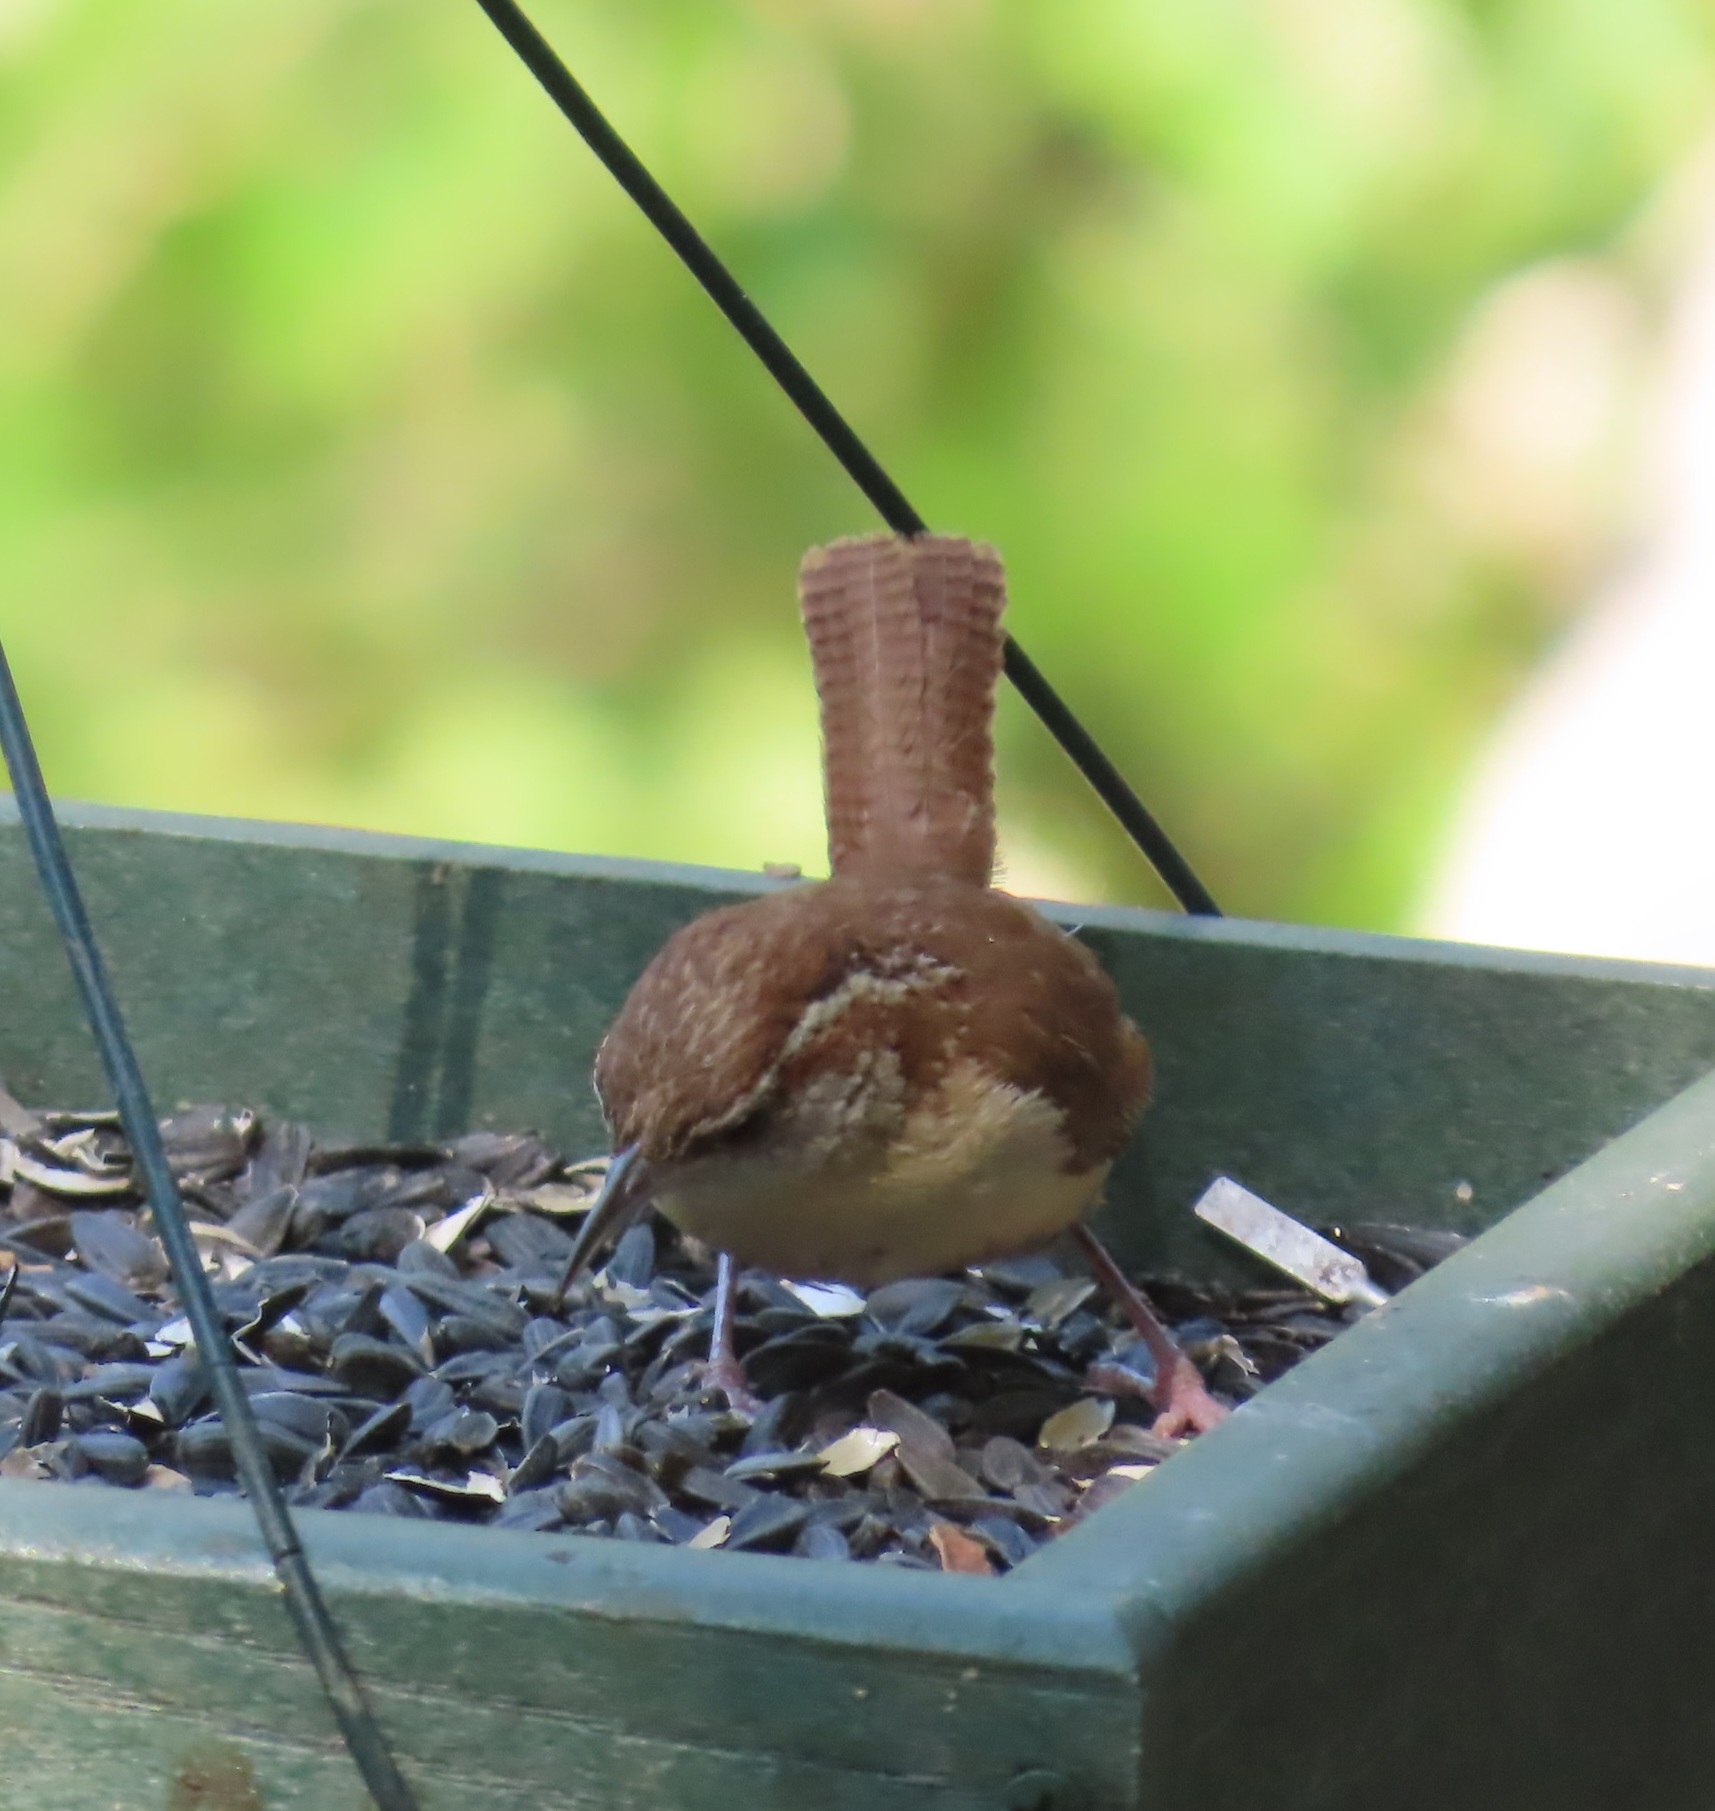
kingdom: Animalia
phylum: Chordata
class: Aves
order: Passeriformes
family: Troglodytidae
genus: Thryothorus
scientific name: Thryothorus ludovicianus
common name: Carolina wren
